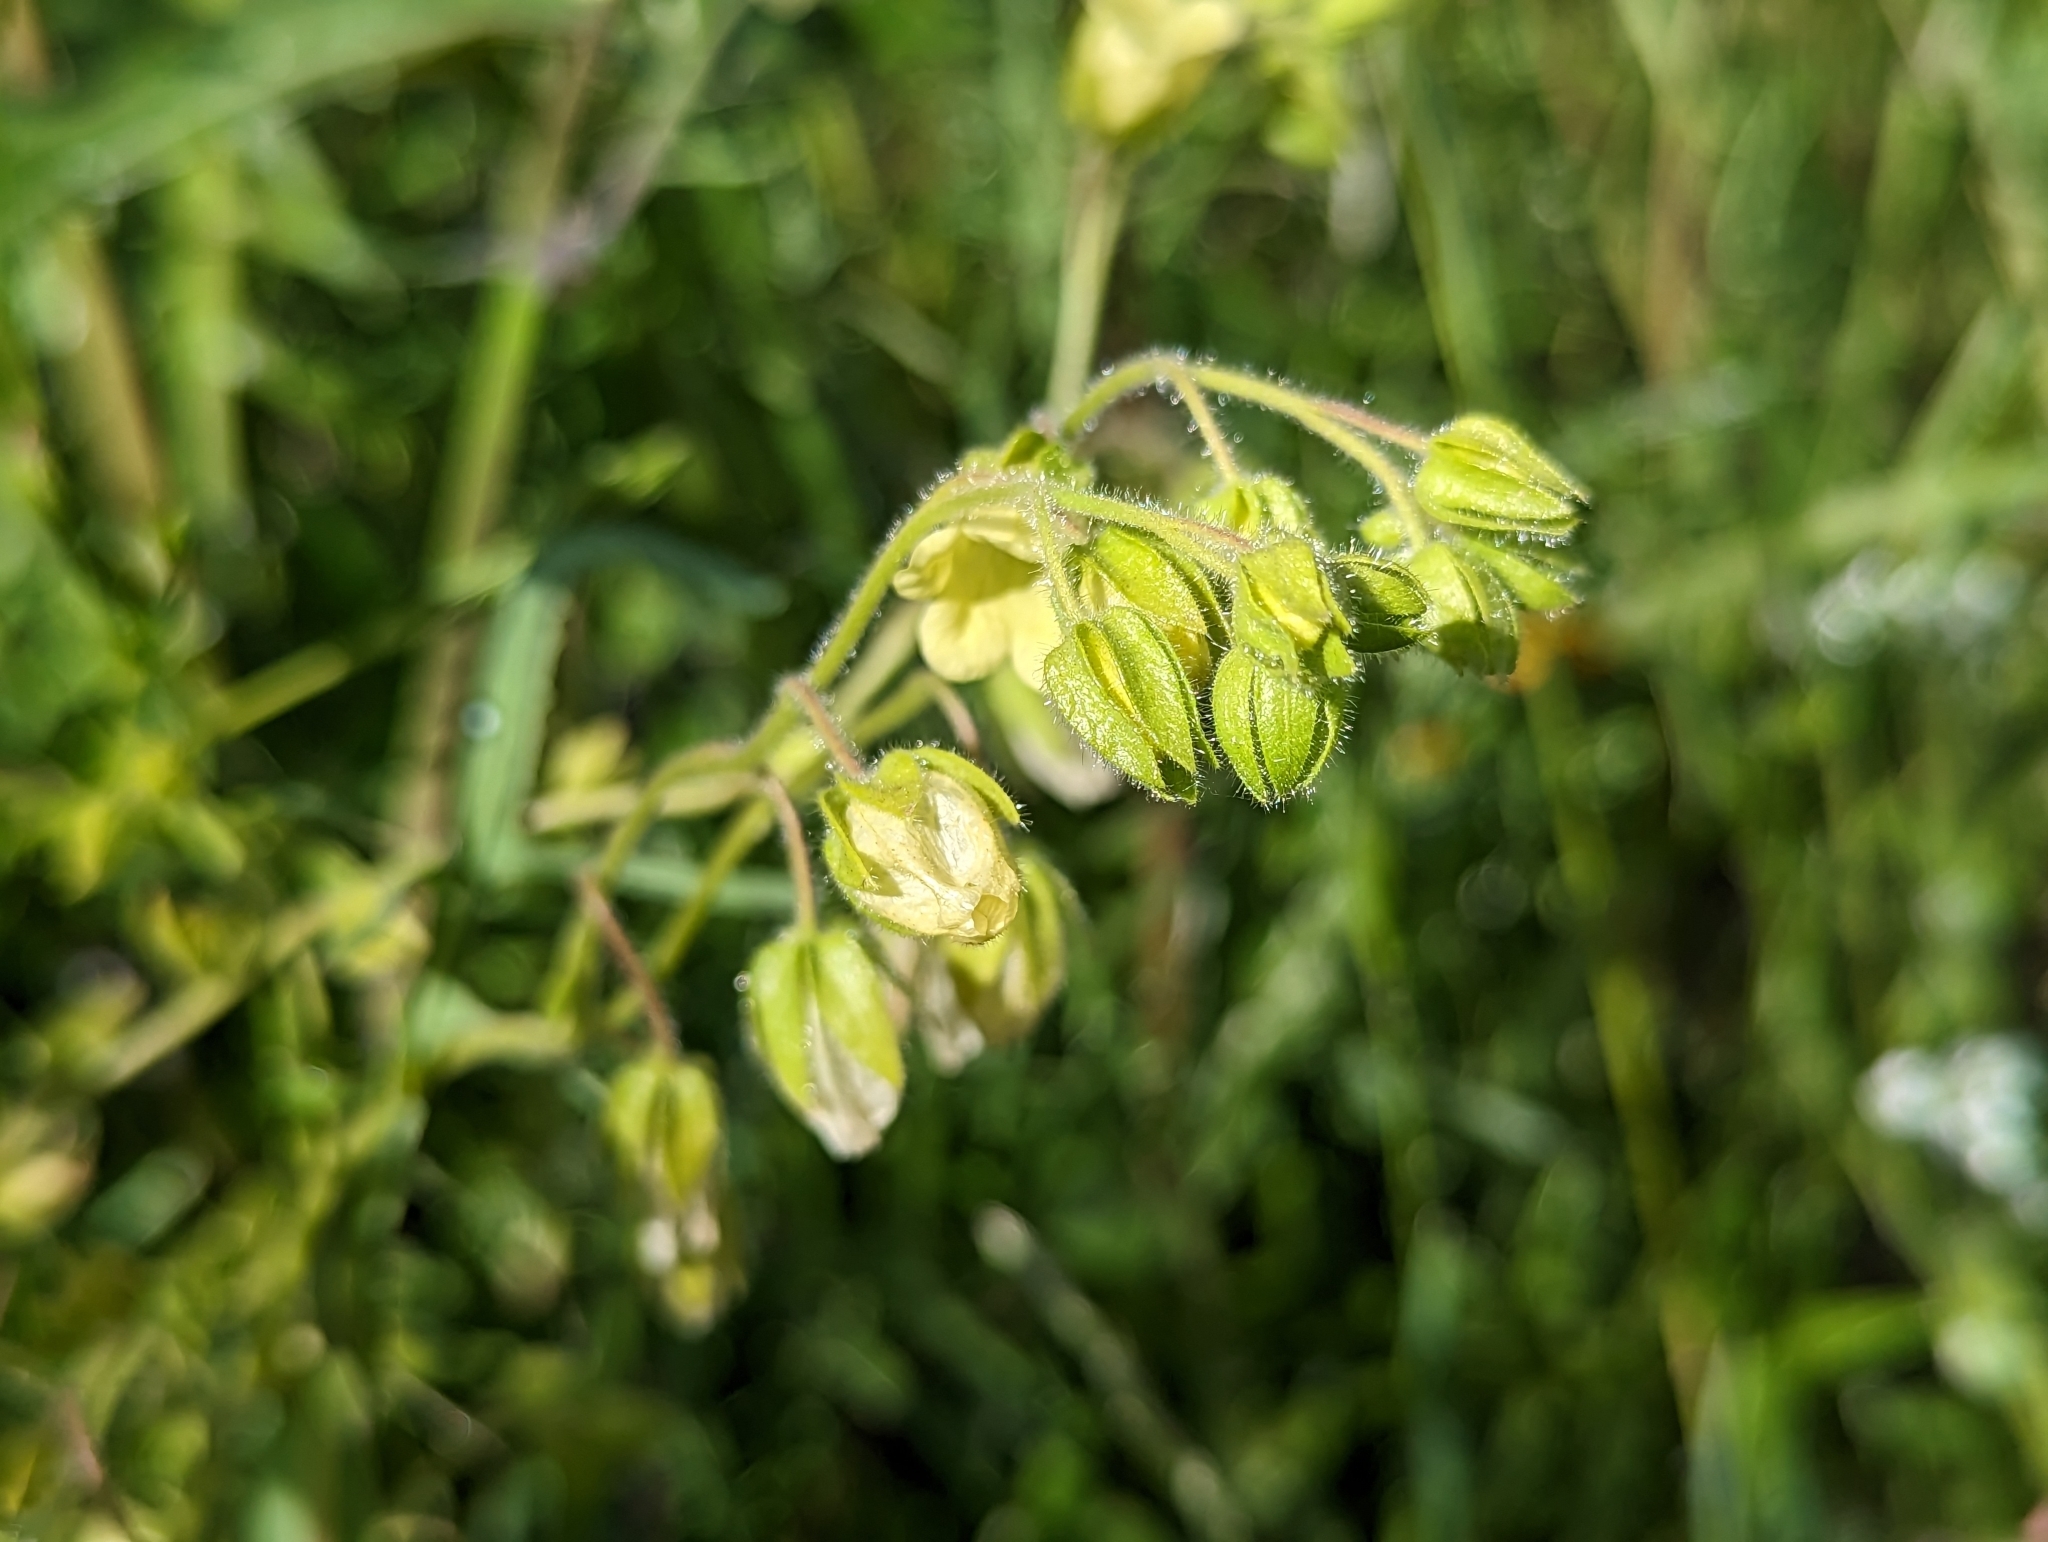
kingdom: Plantae
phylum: Tracheophyta
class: Magnoliopsida
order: Boraginales
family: Hydrophyllaceae
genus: Emmenanthe
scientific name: Emmenanthe penduliflora
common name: Whispering-bells
